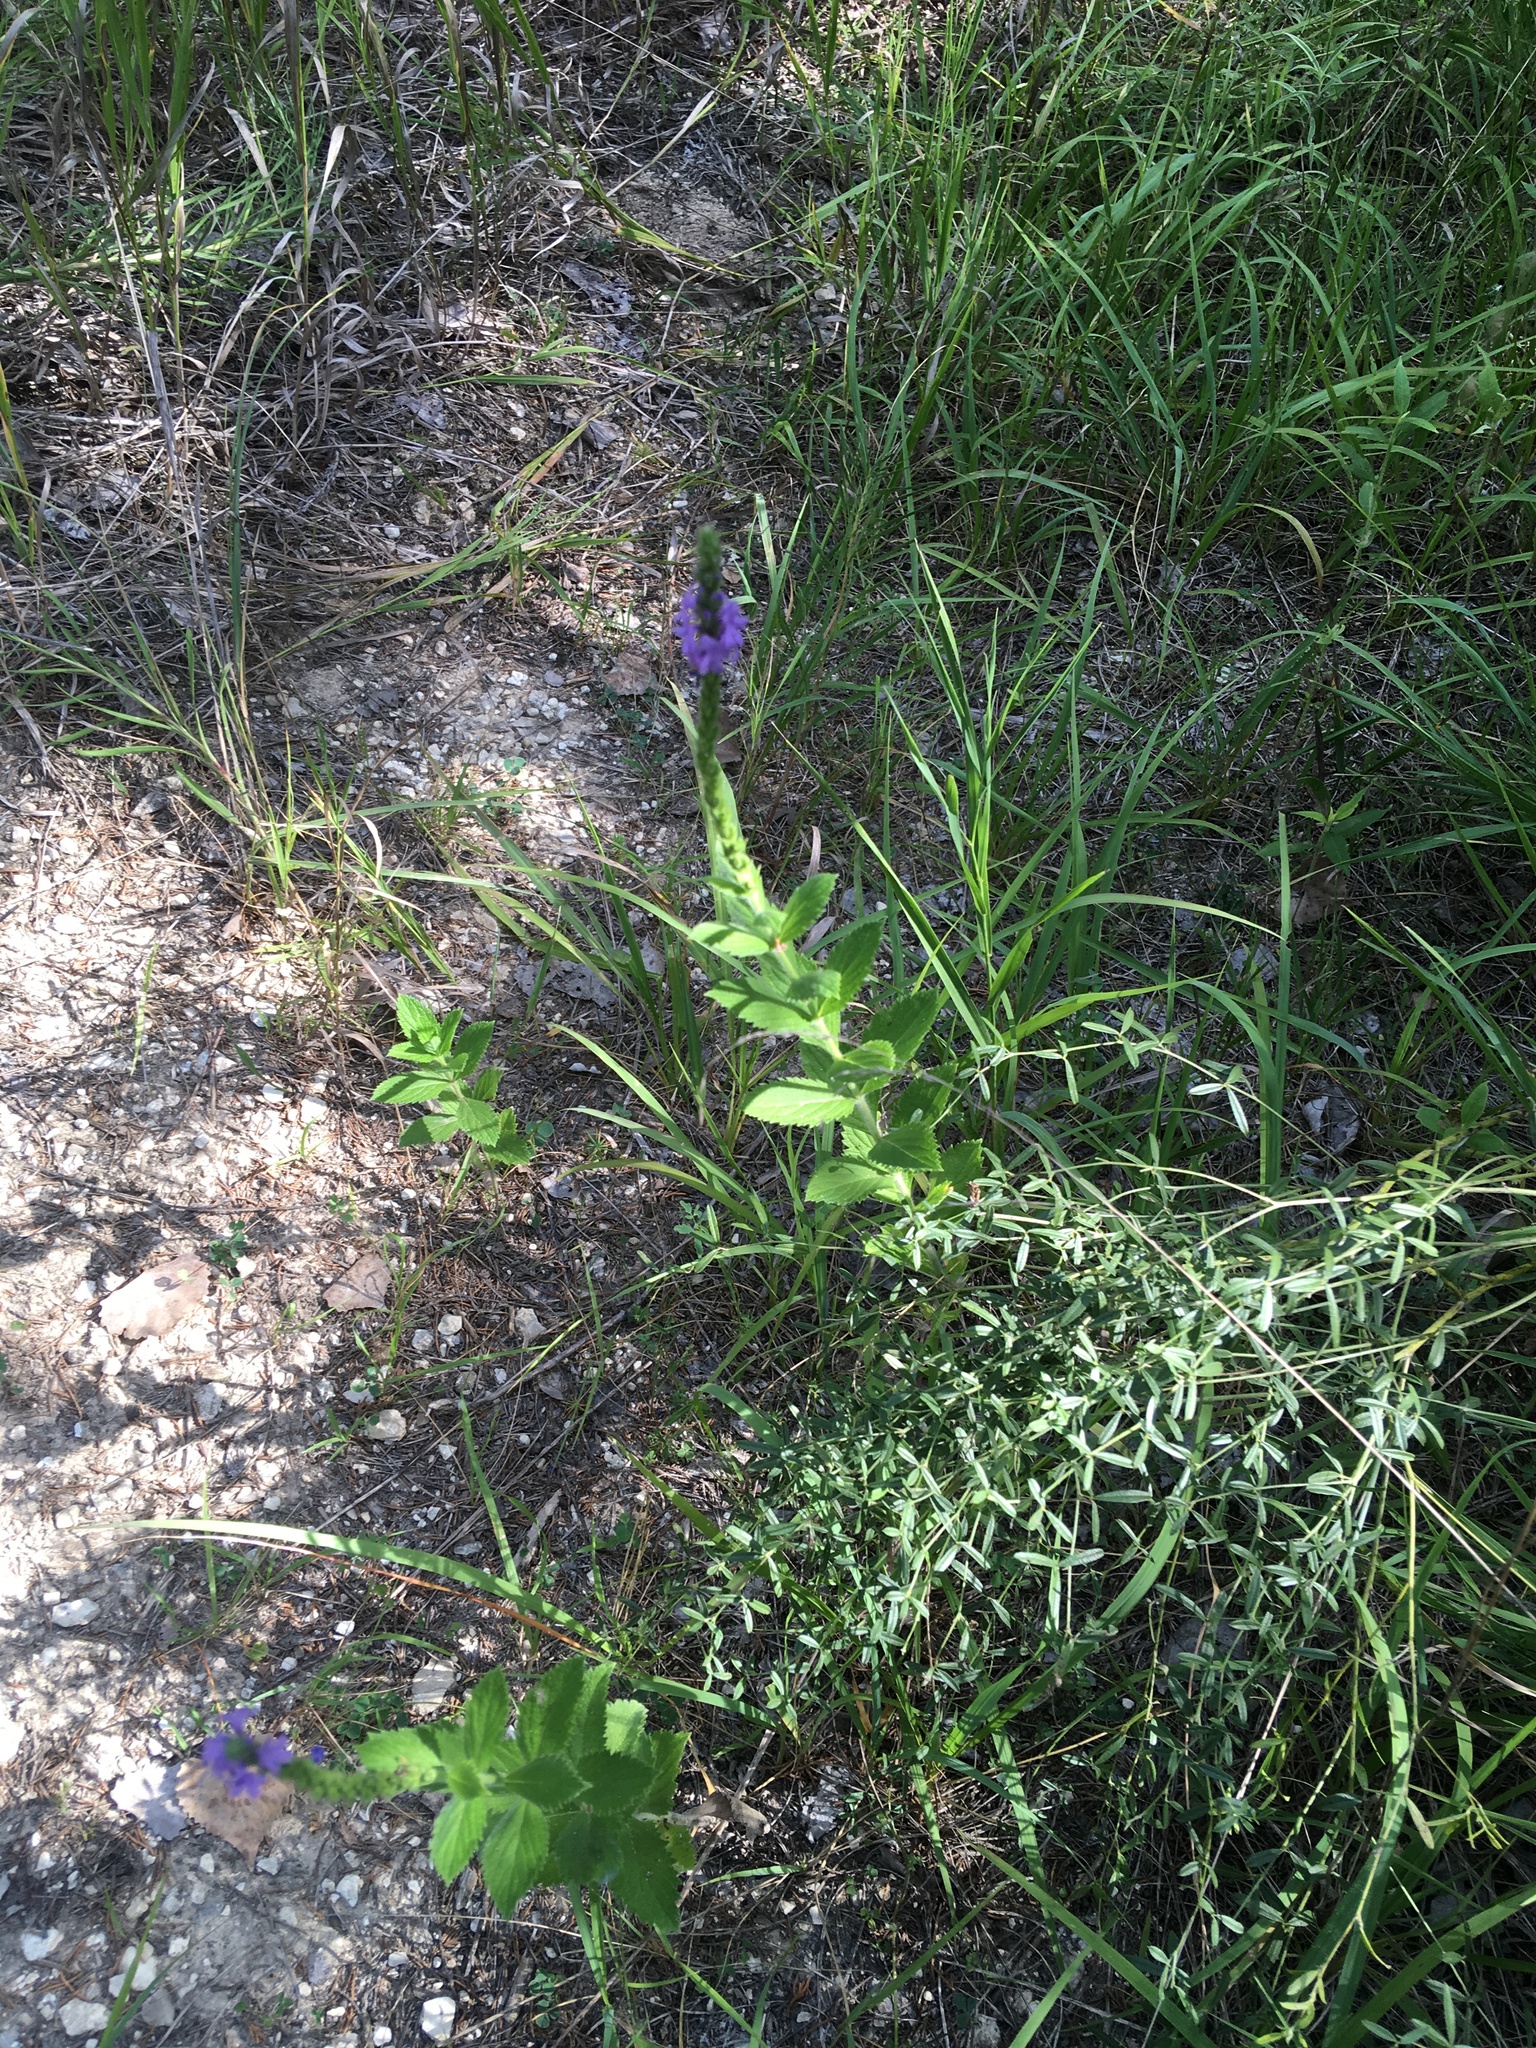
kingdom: Plantae
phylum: Tracheophyta
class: Magnoliopsida
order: Lamiales
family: Verbenaceae
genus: Verbena
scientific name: Verbena stricta
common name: Hoary vervain
